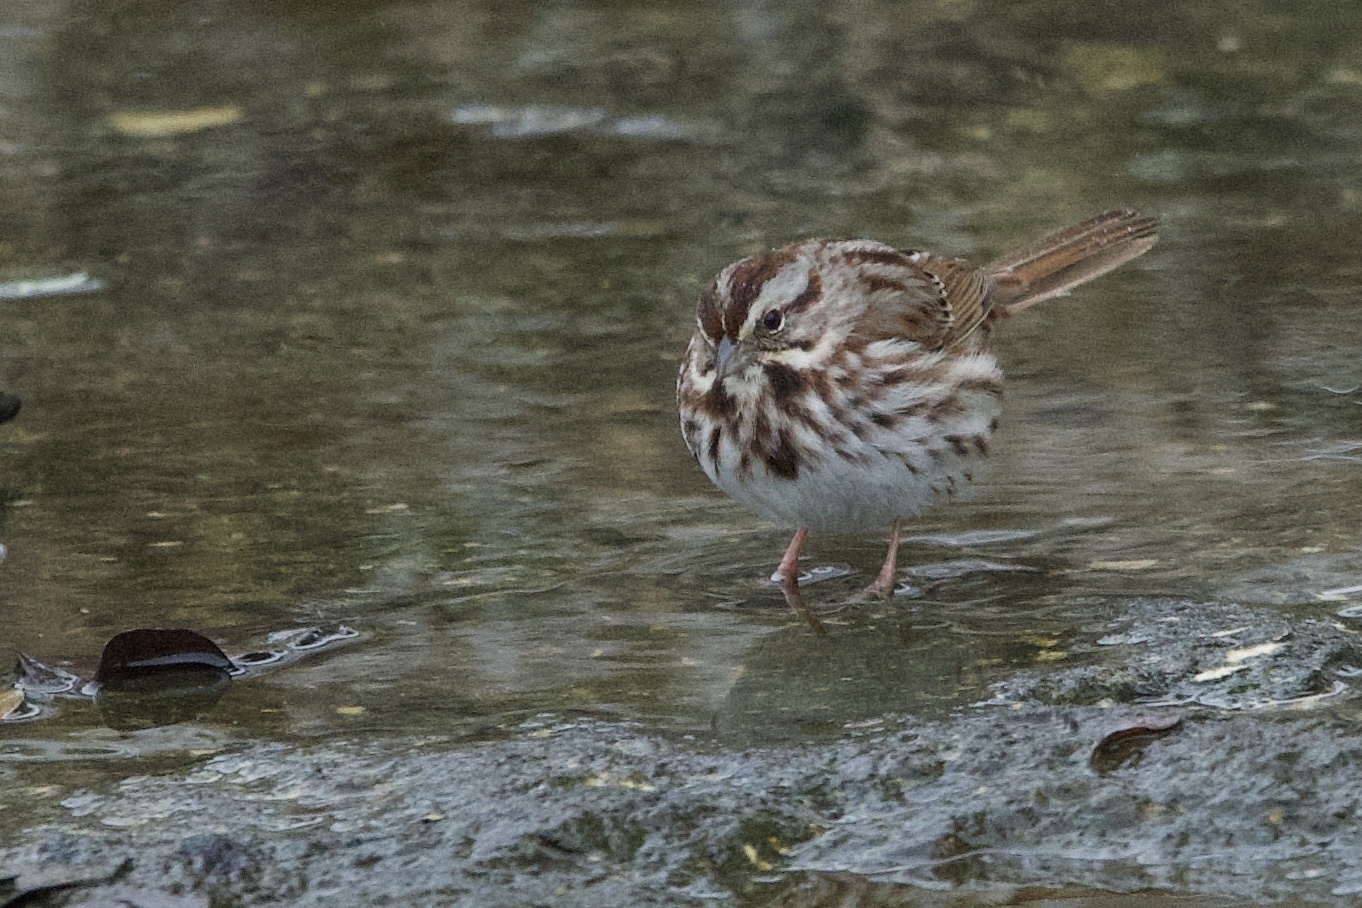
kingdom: Animalia
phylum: Chordata
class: Aves
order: Passeriformes
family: Passerellidae
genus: Melospiza
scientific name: Melospiza melodia
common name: Song sparrow
